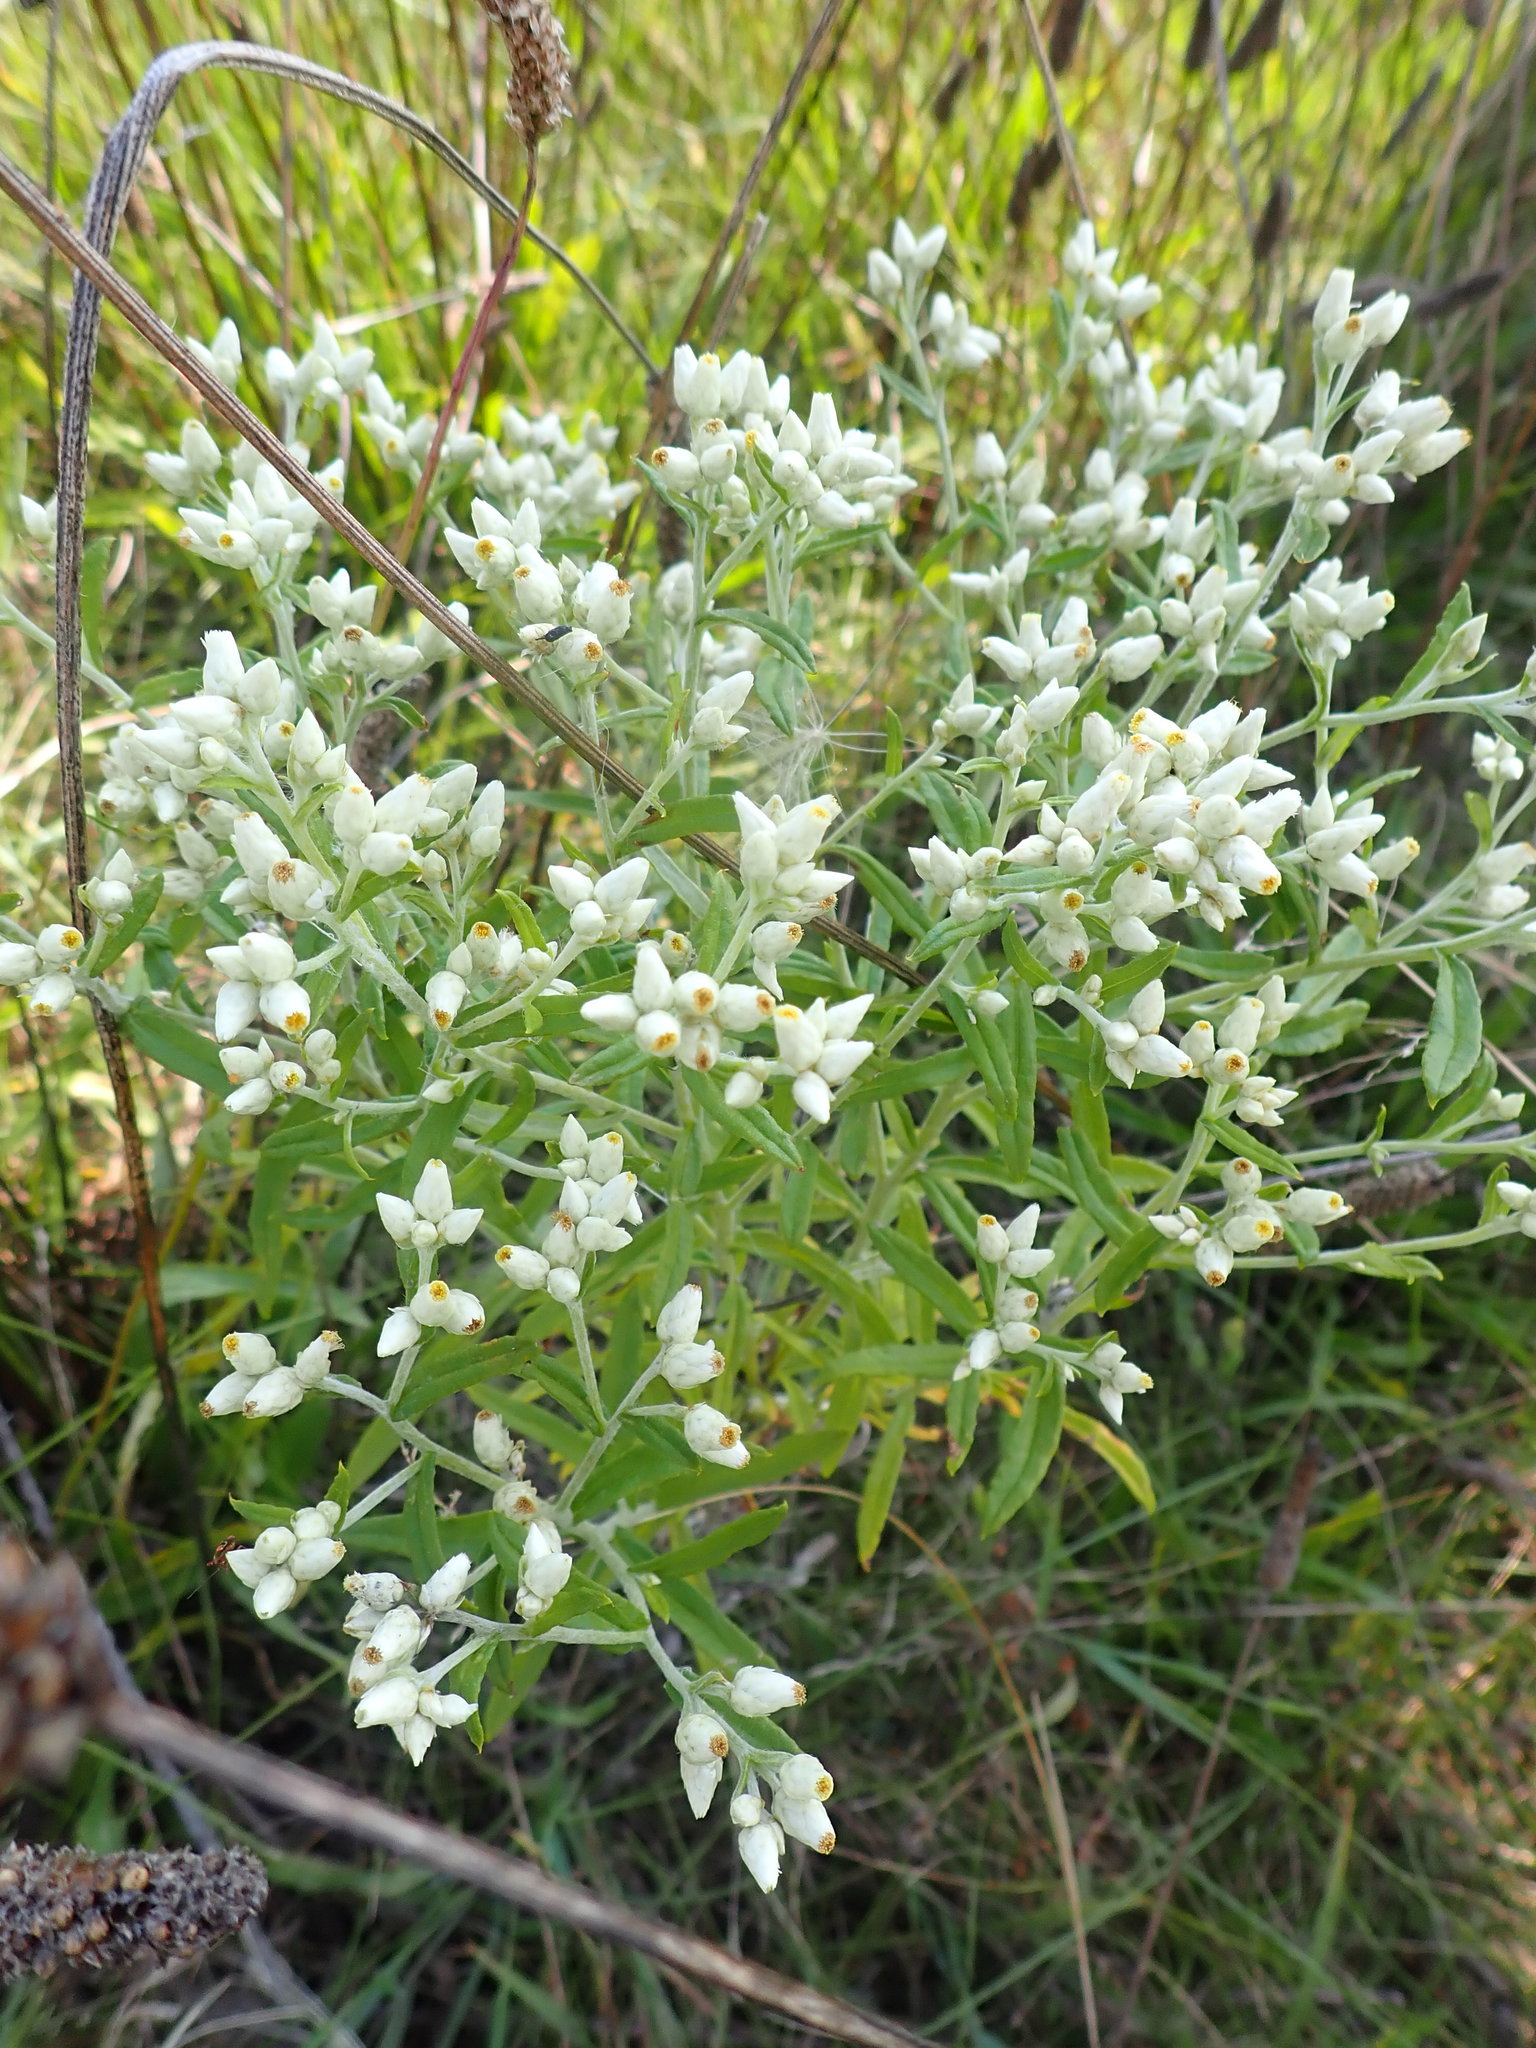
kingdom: Plantae
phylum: Tracheophyta
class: Magnoliopsida
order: Asterales
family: Asteraceae
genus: Pseudognaphalium
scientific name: Pseudognaphalium obtusifolium
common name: Eastern rabbit-tobacco
